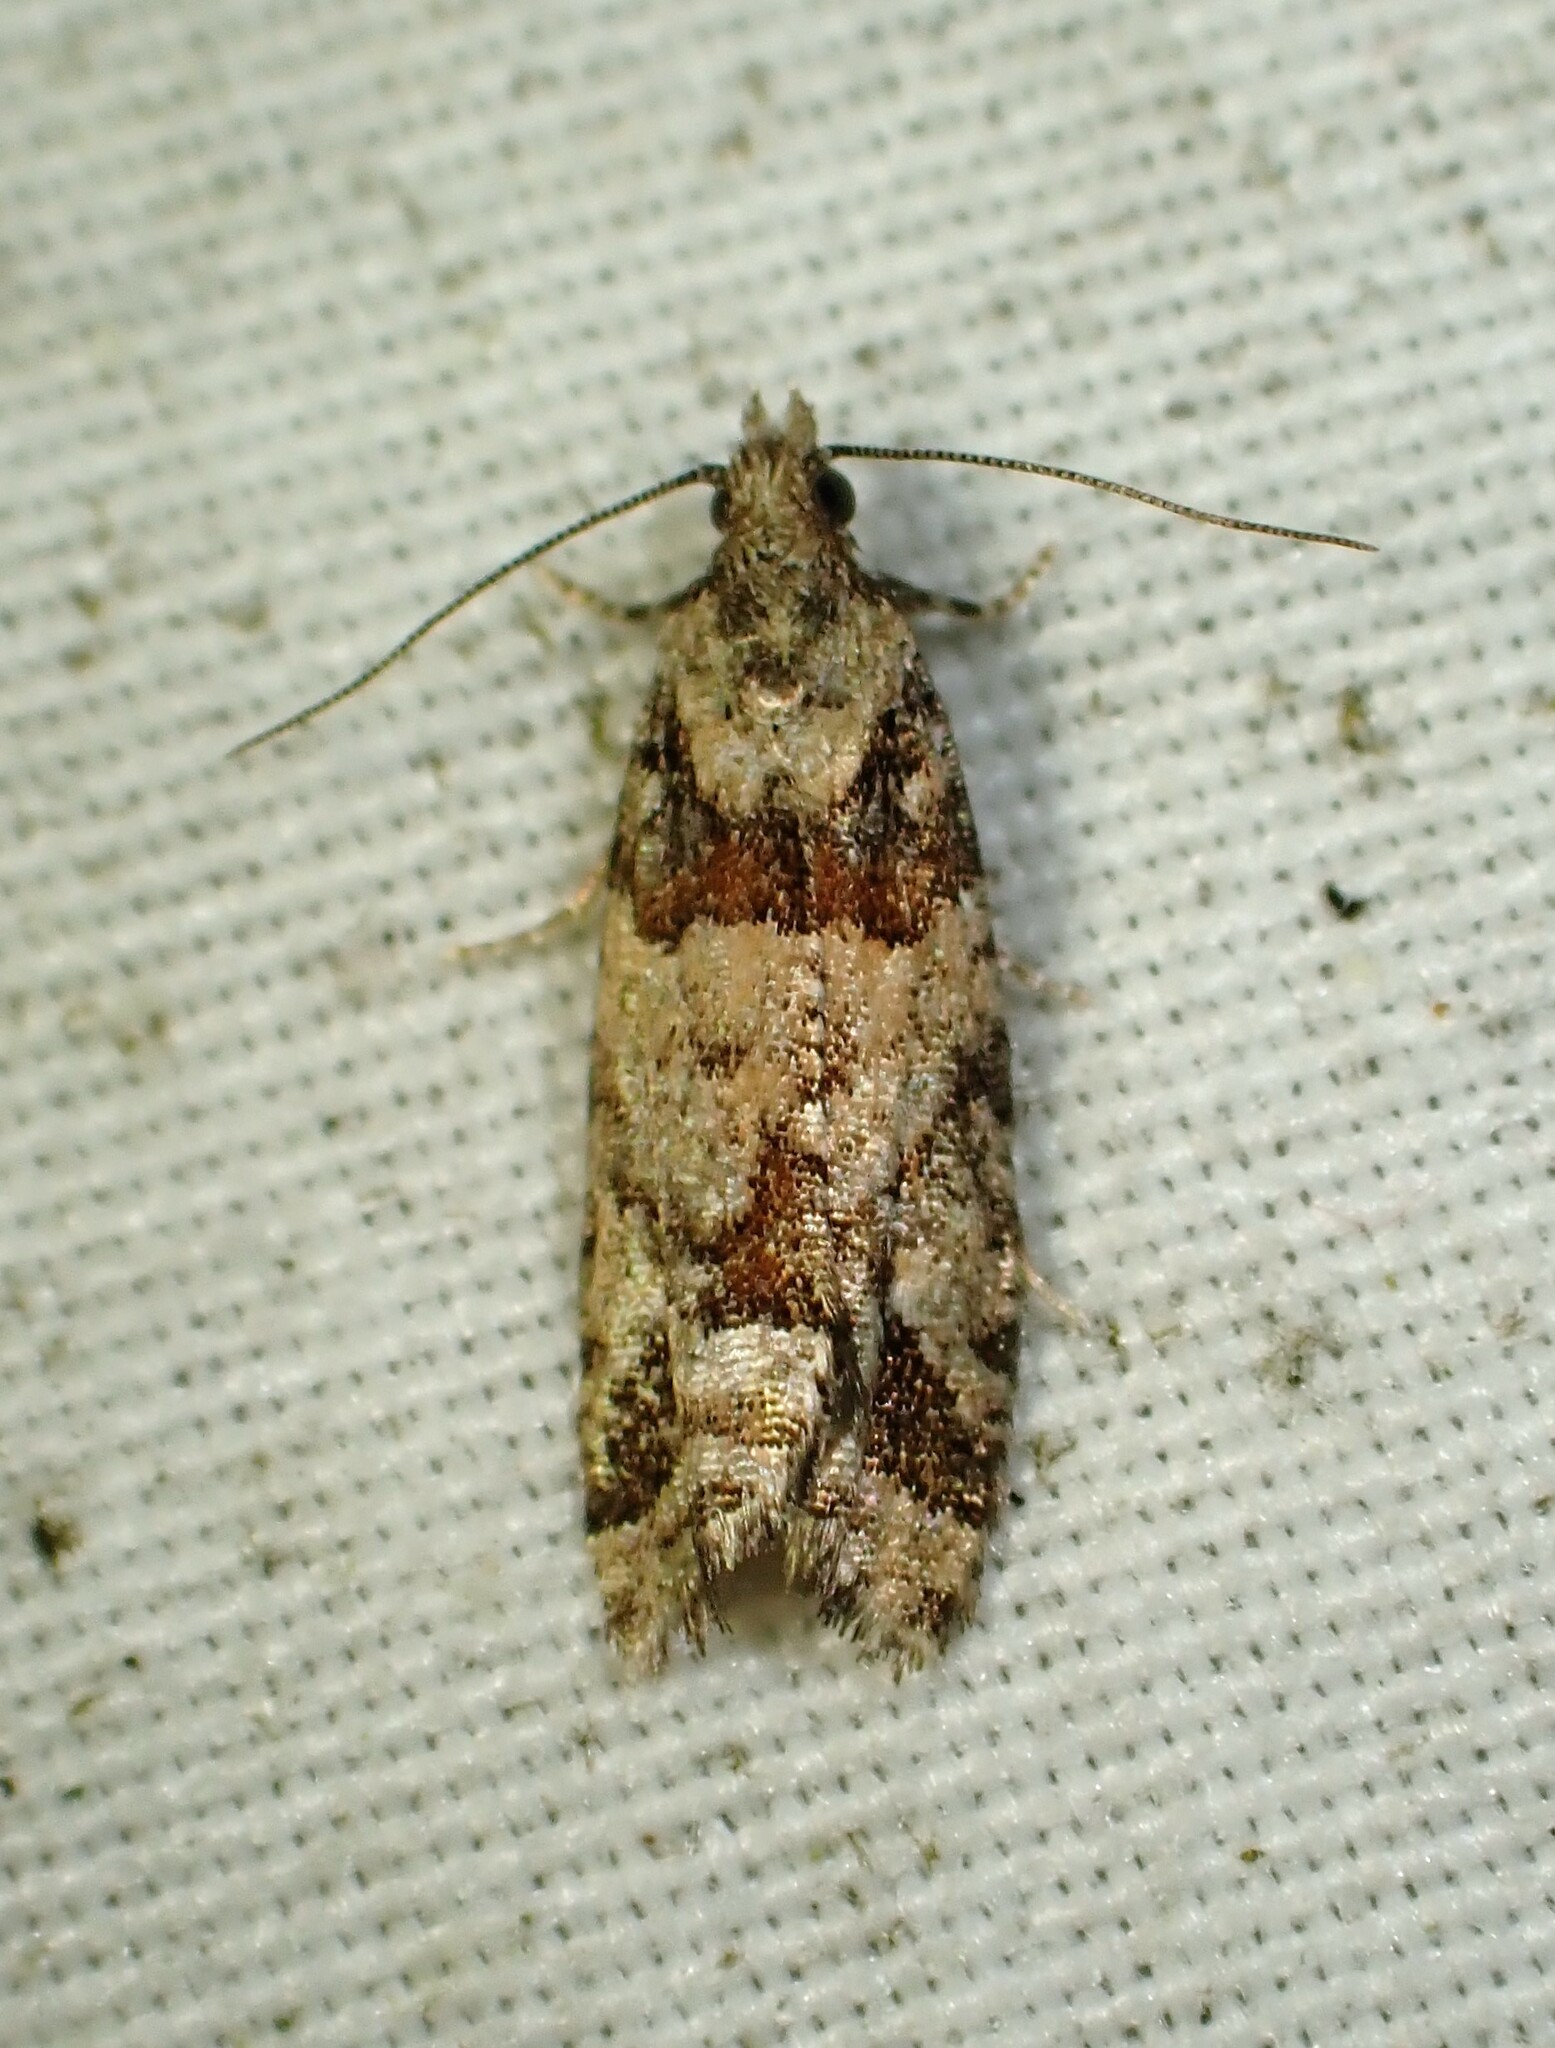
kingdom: Animalia
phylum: Arthropoda
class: Insecta
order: Lepidoptera
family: Tortricidae
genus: Epinotia
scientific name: Epinotia radicana
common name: Red-striped needleworm moth
